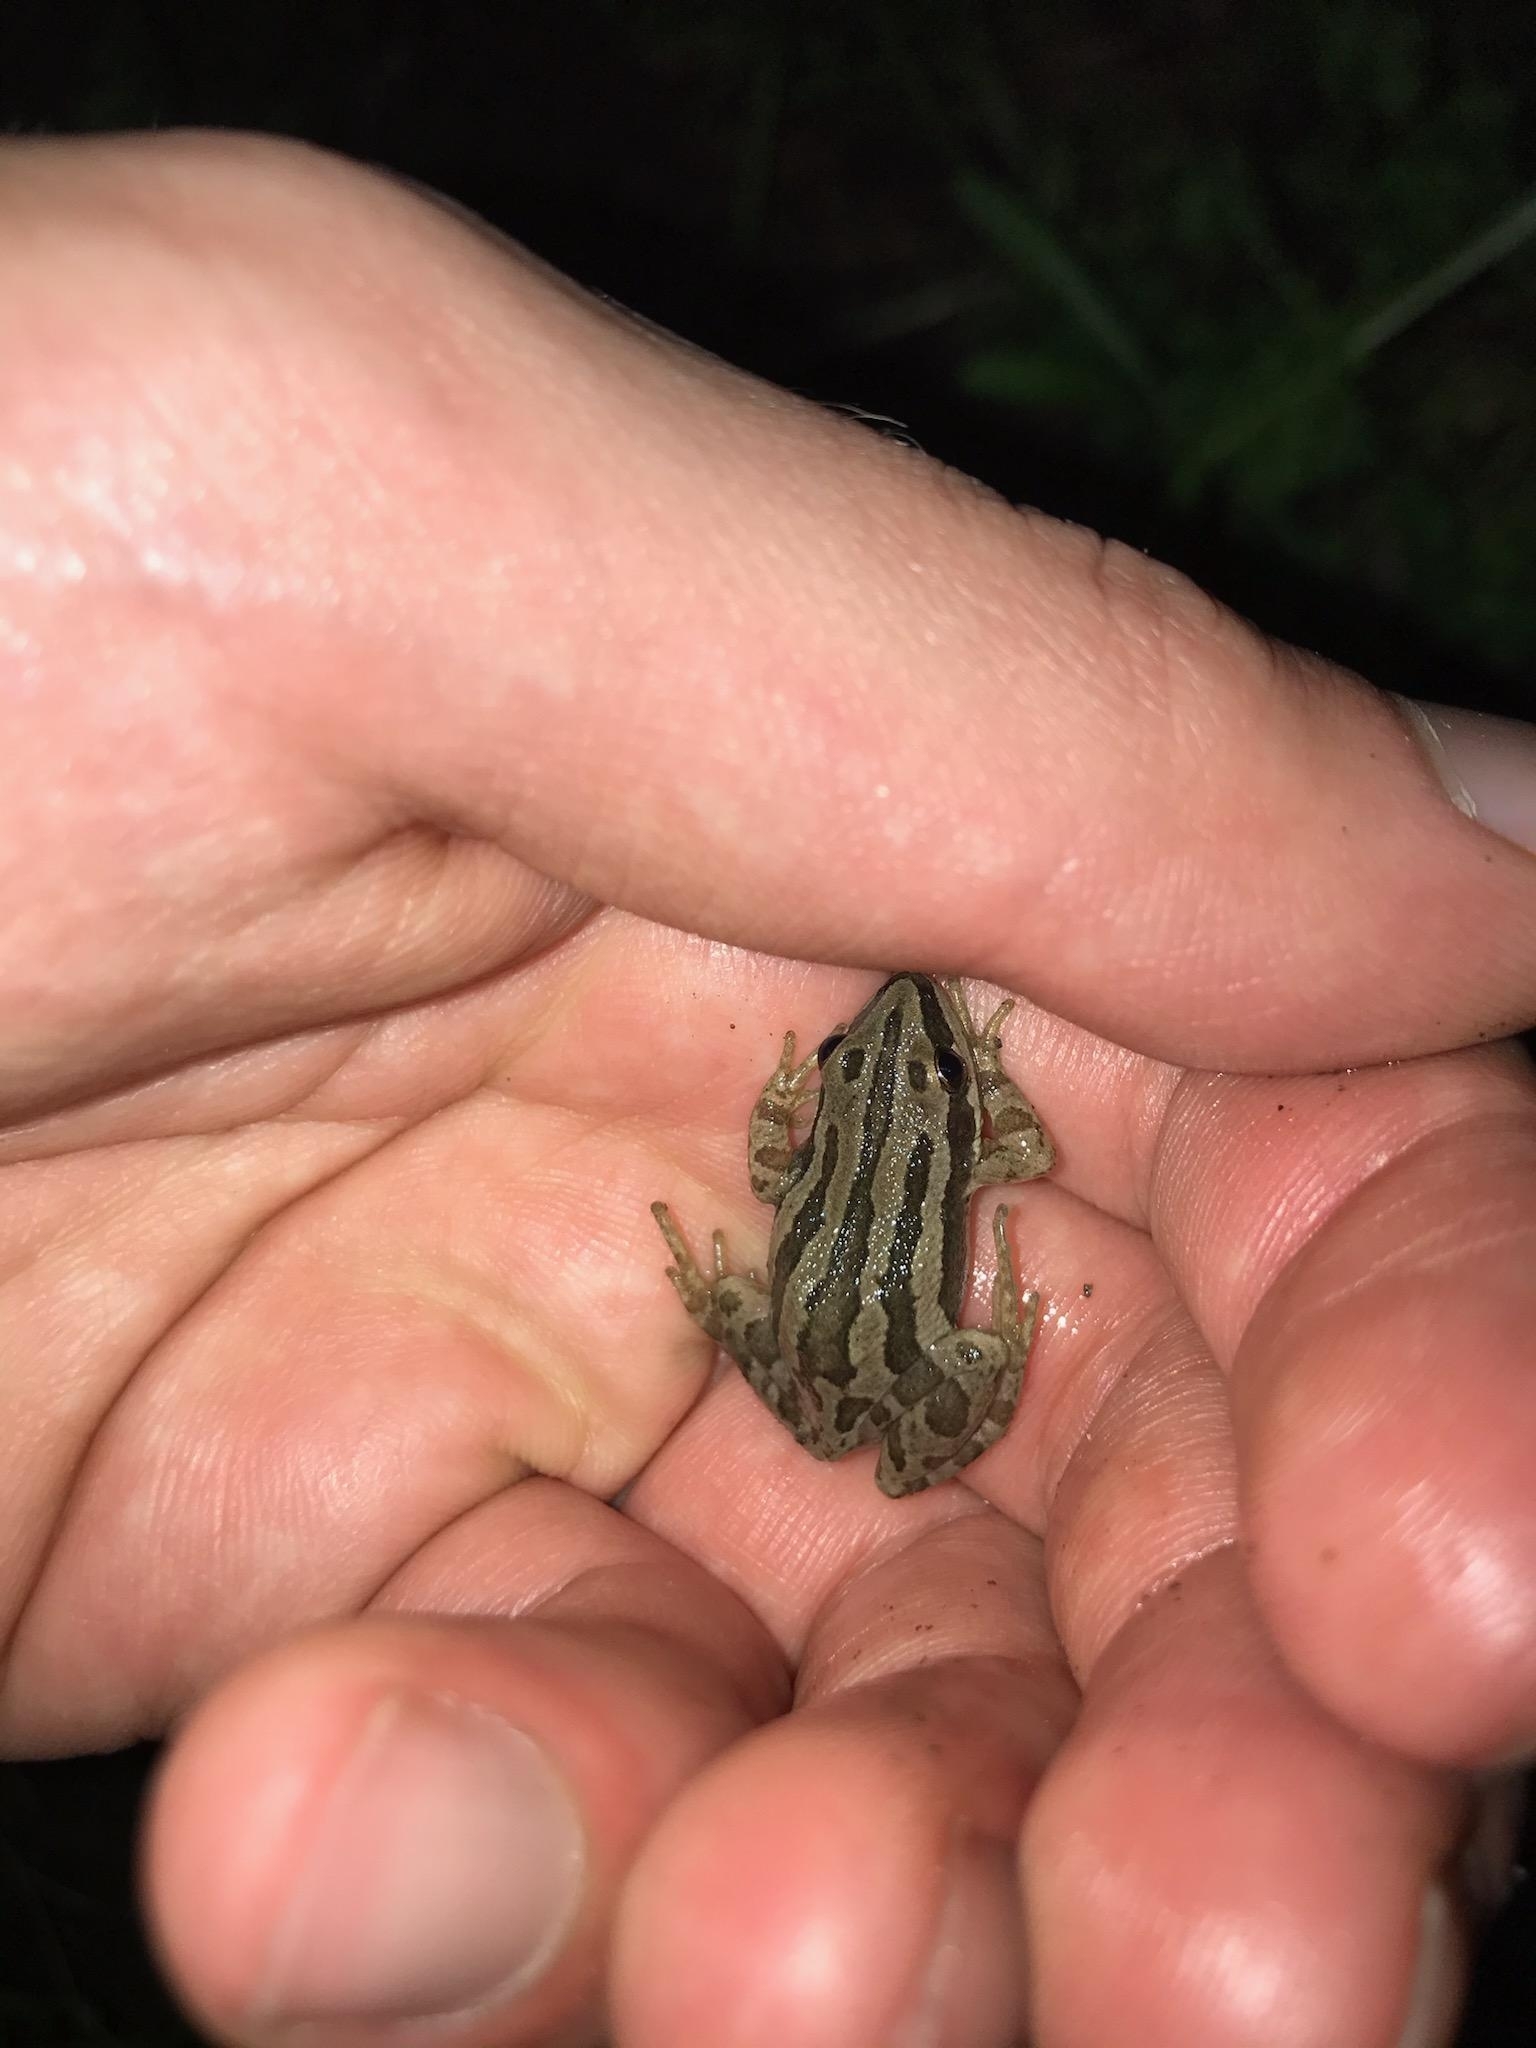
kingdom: Animalia
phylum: Chordata
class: Amphibia
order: Anura
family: Hylidae
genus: Pseudacris
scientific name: Pseudacris maculata
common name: Boreal chorus frog
